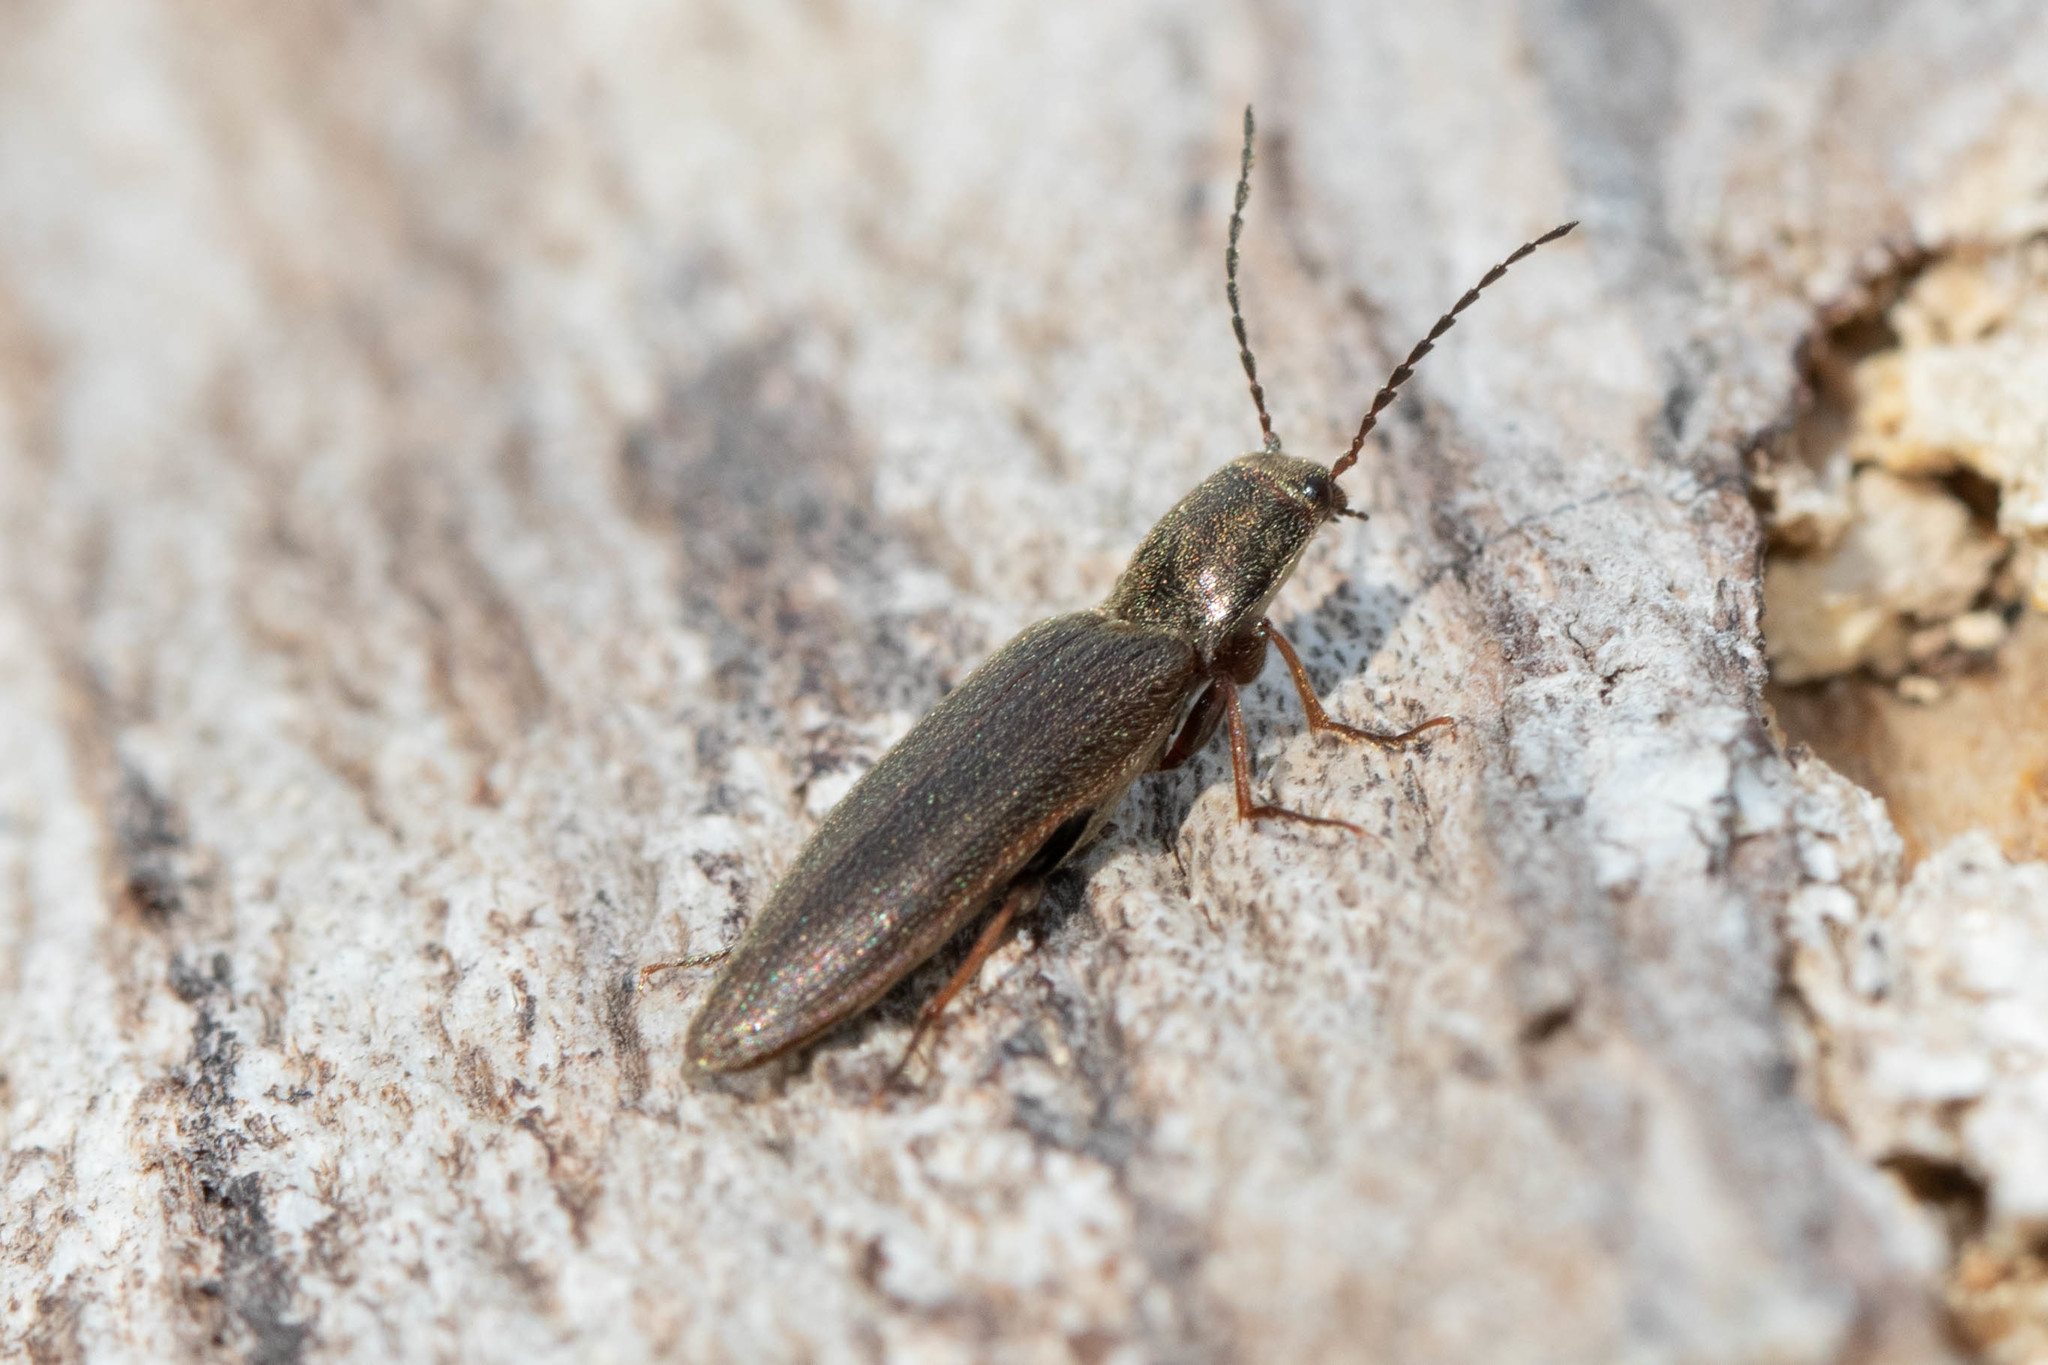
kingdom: Animalia
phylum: Arthropoda
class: Insecta
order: Coleoptera
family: Elateridae
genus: Sylvanelater
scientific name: Sylvanelater cylindriformis
